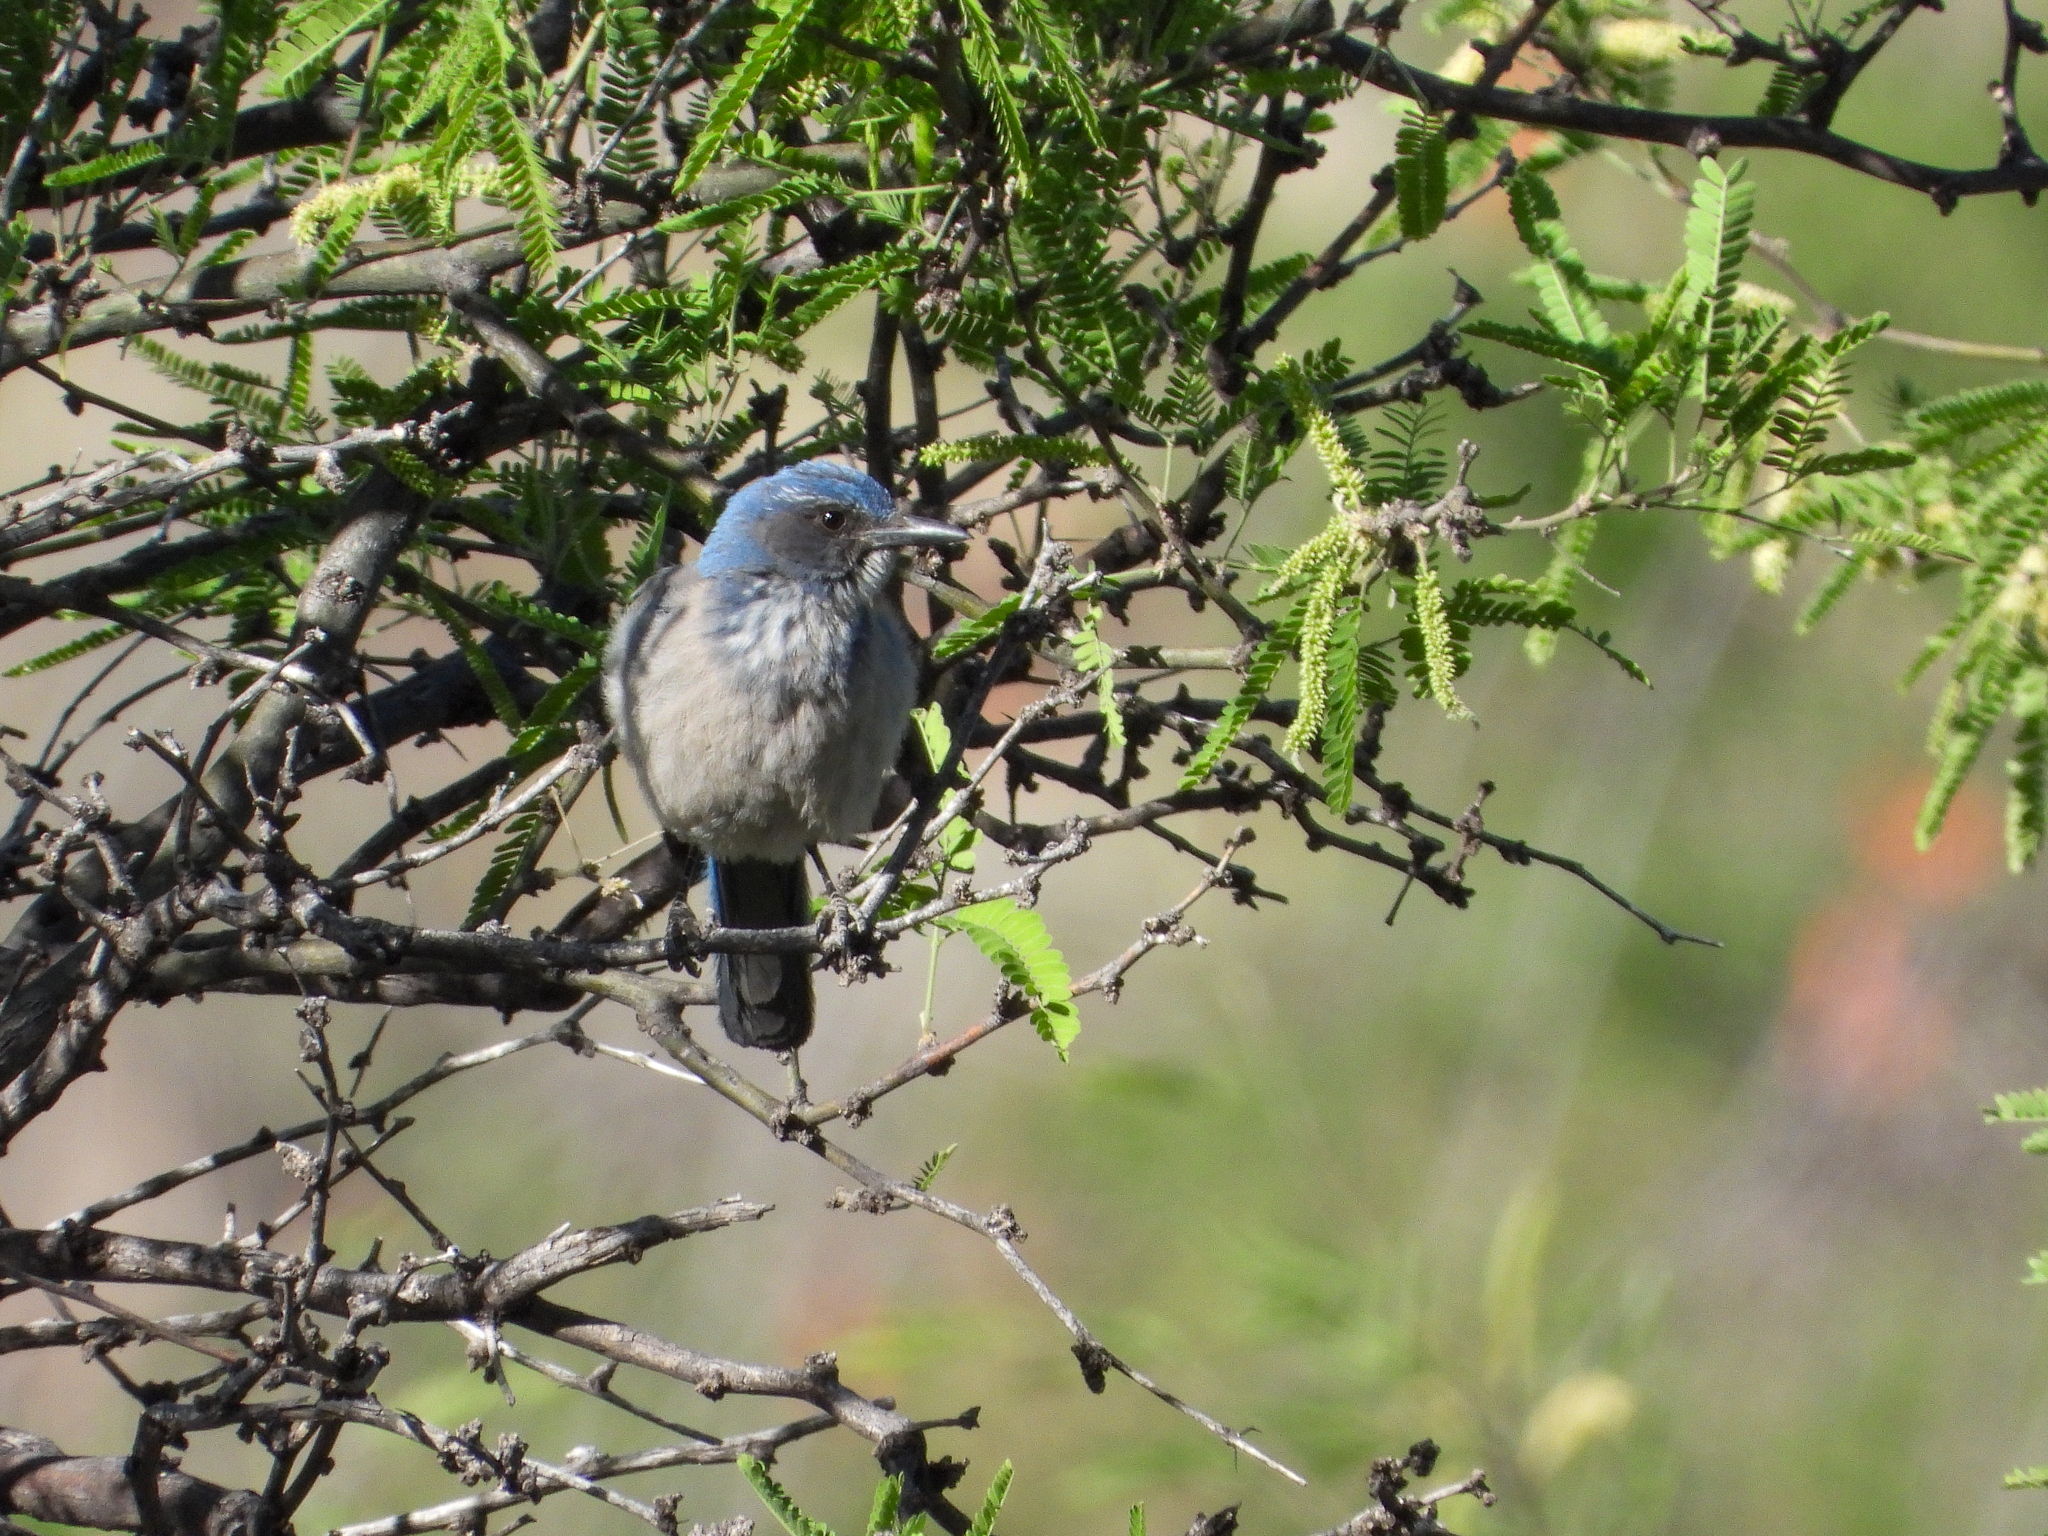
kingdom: Animalia
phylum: Chordata
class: Aves
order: Passeriformes
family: Corvidae
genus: Aphelocoma
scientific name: Aphelocoma woodhouseii
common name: Woodhouse's scrub-jay
